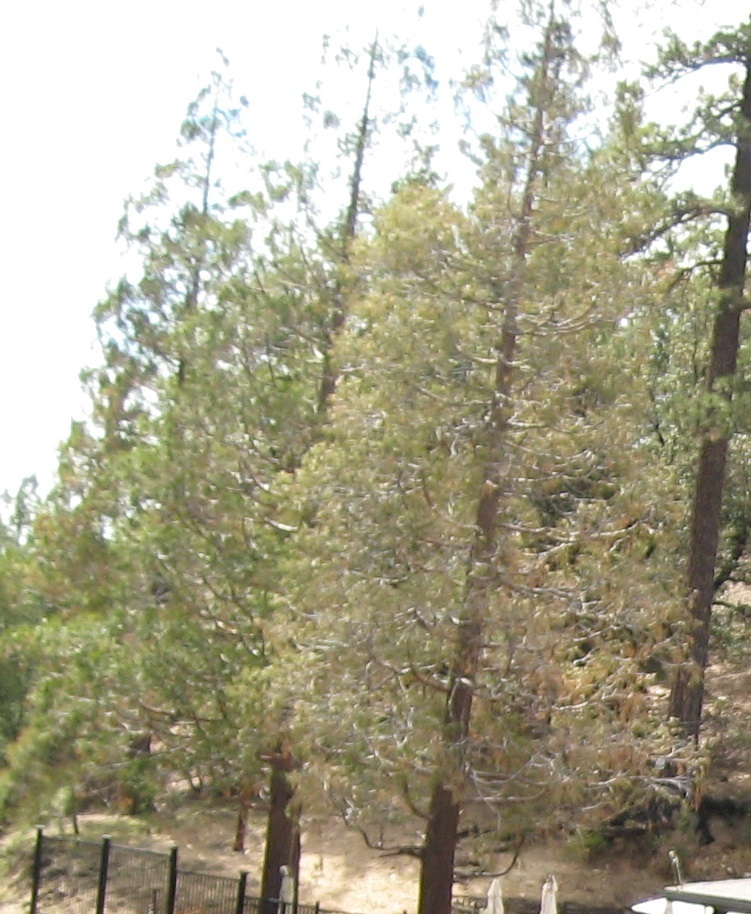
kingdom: Plantae
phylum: Tracheophyta
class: Pinopsida
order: Pinales
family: Cupressaceae
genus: Calocedrus
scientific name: Calocedrus decurrens
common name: Californian incense-cedar
